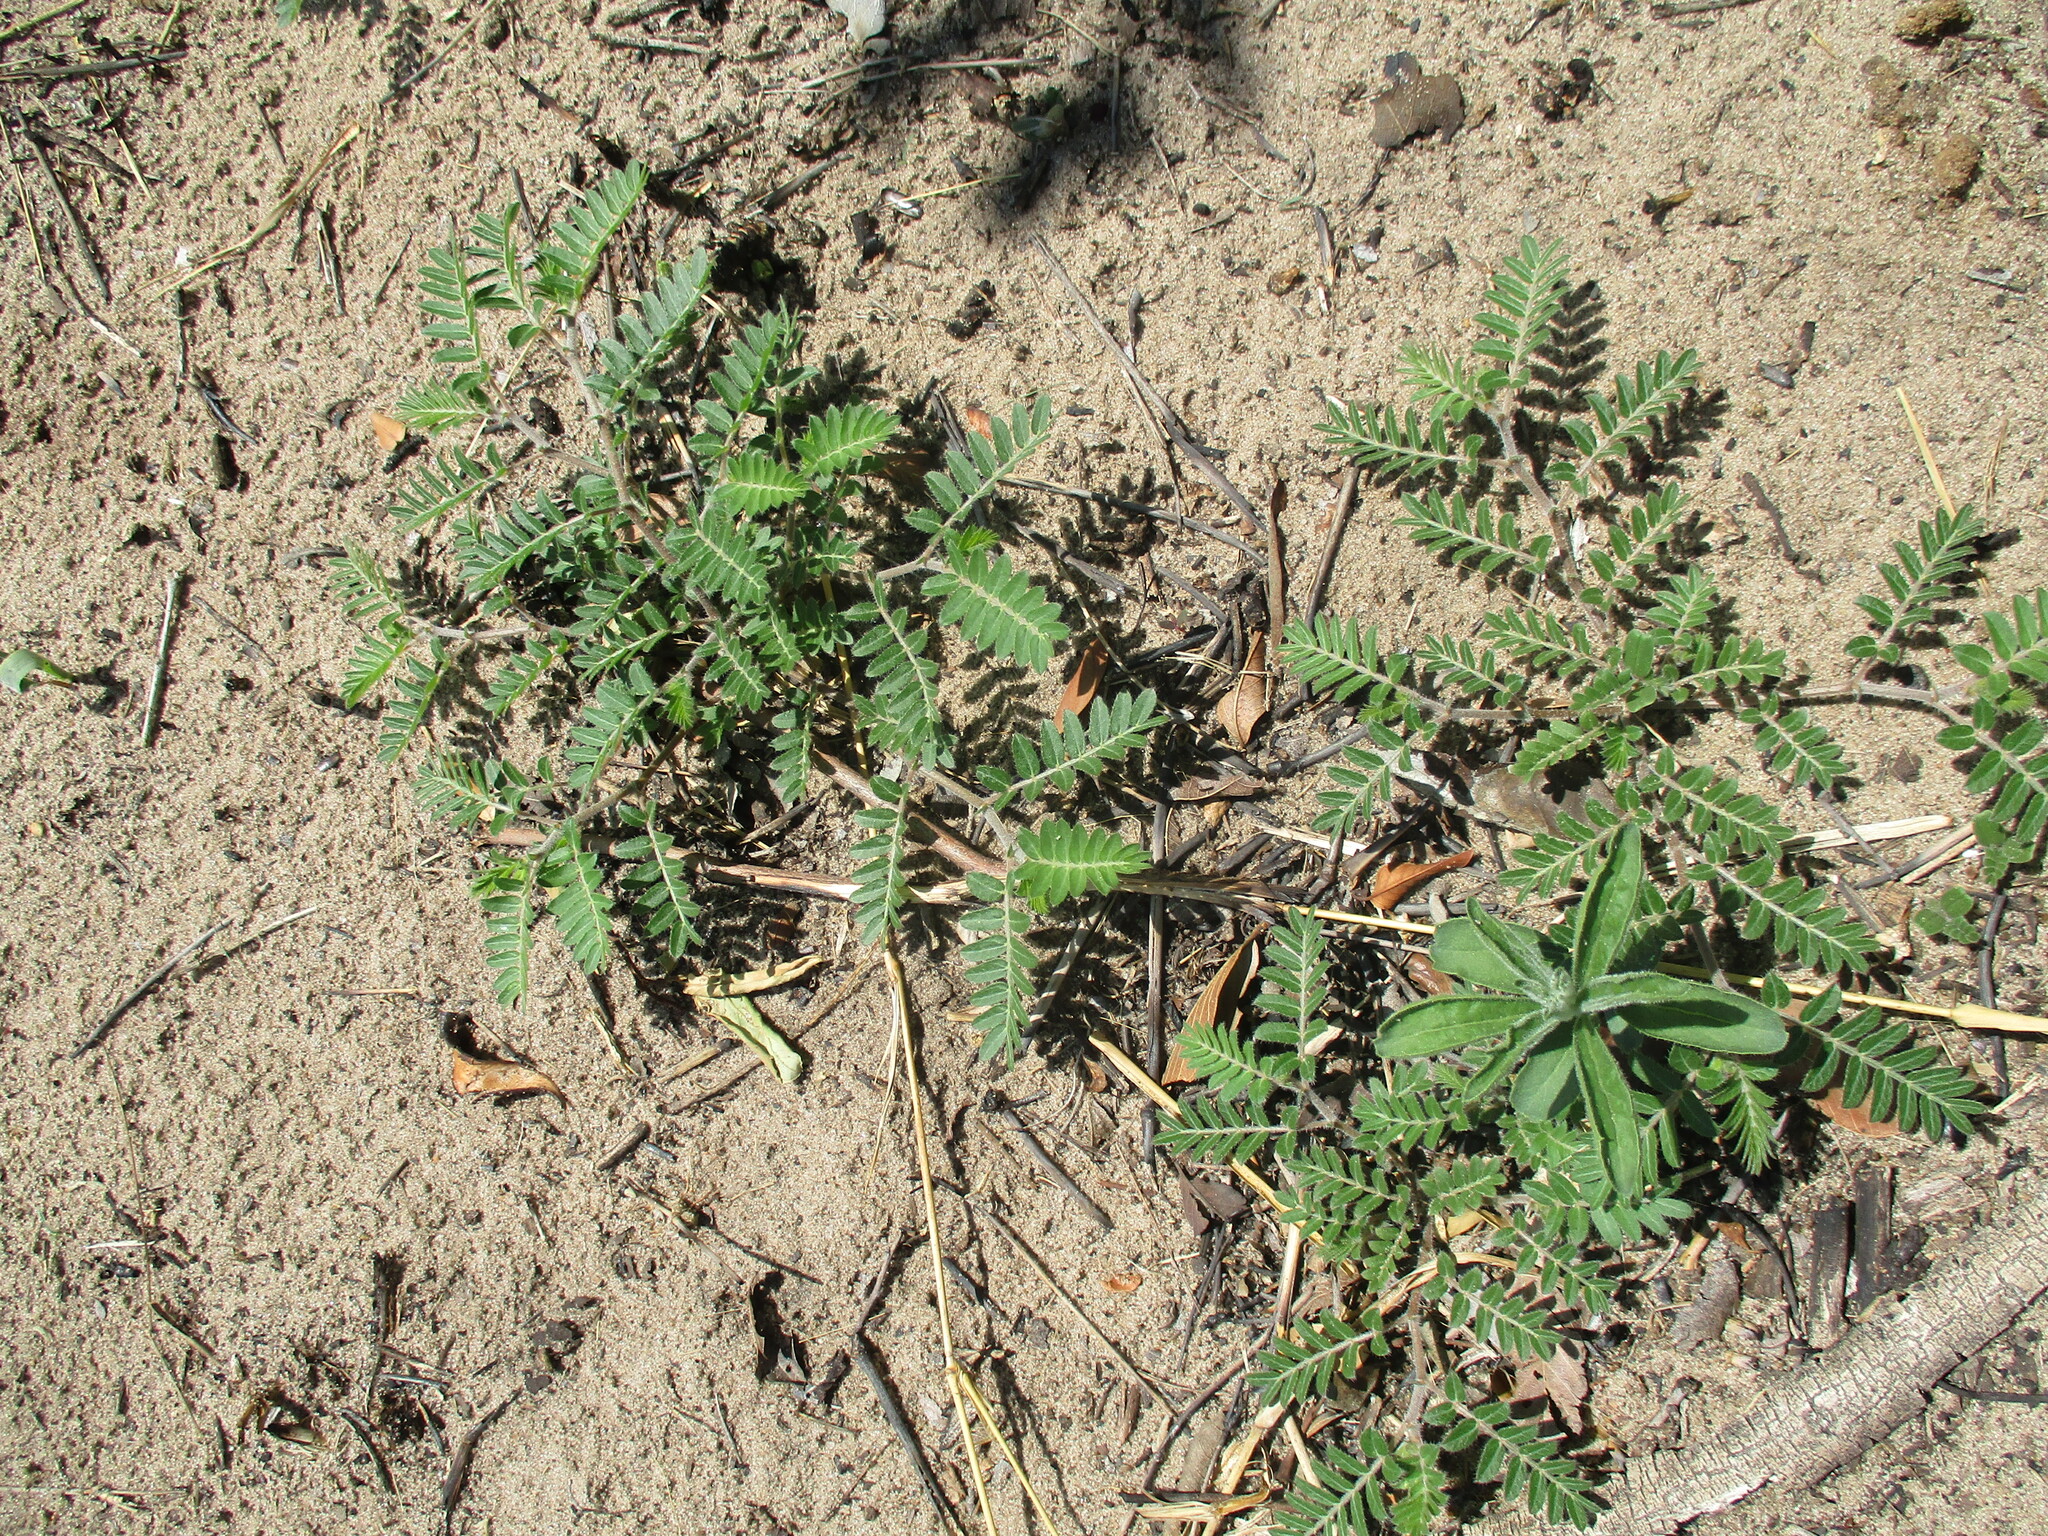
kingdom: Plantae
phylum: Tracheophyta
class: Magnoliopsida
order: Zygophyllales
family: Zygophyllaceae
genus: Tribulus
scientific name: Tribulus terrestris
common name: Puncturevine
